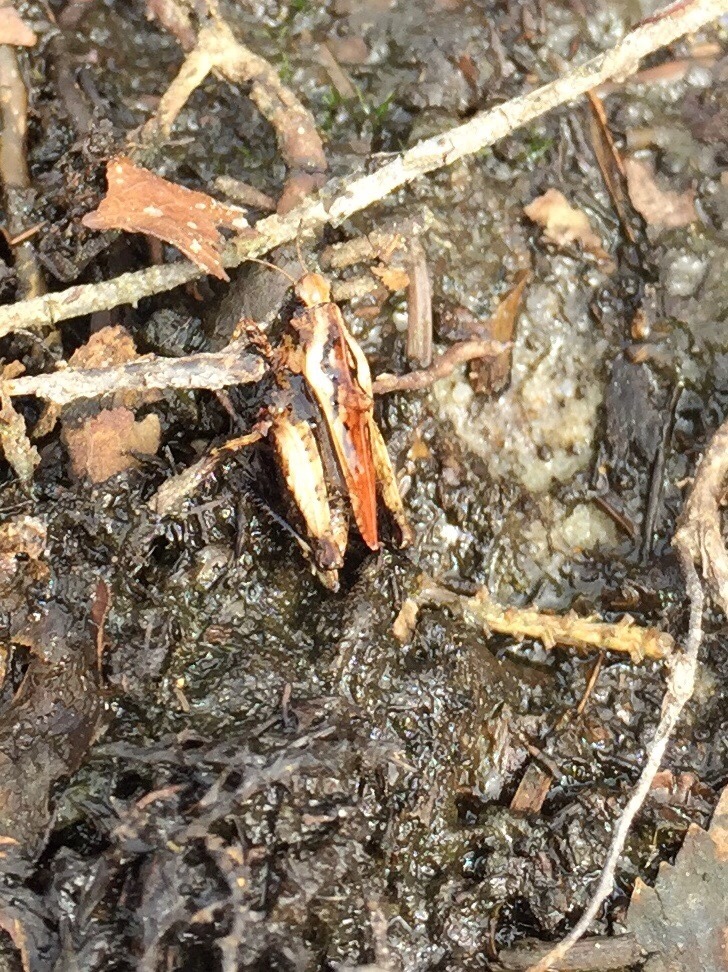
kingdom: Animalia
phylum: Arthropoda
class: Insecta
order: Orthoptera
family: Tetrigidae
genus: Tetrix
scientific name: Tetrix undulata
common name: Common groundhopper
